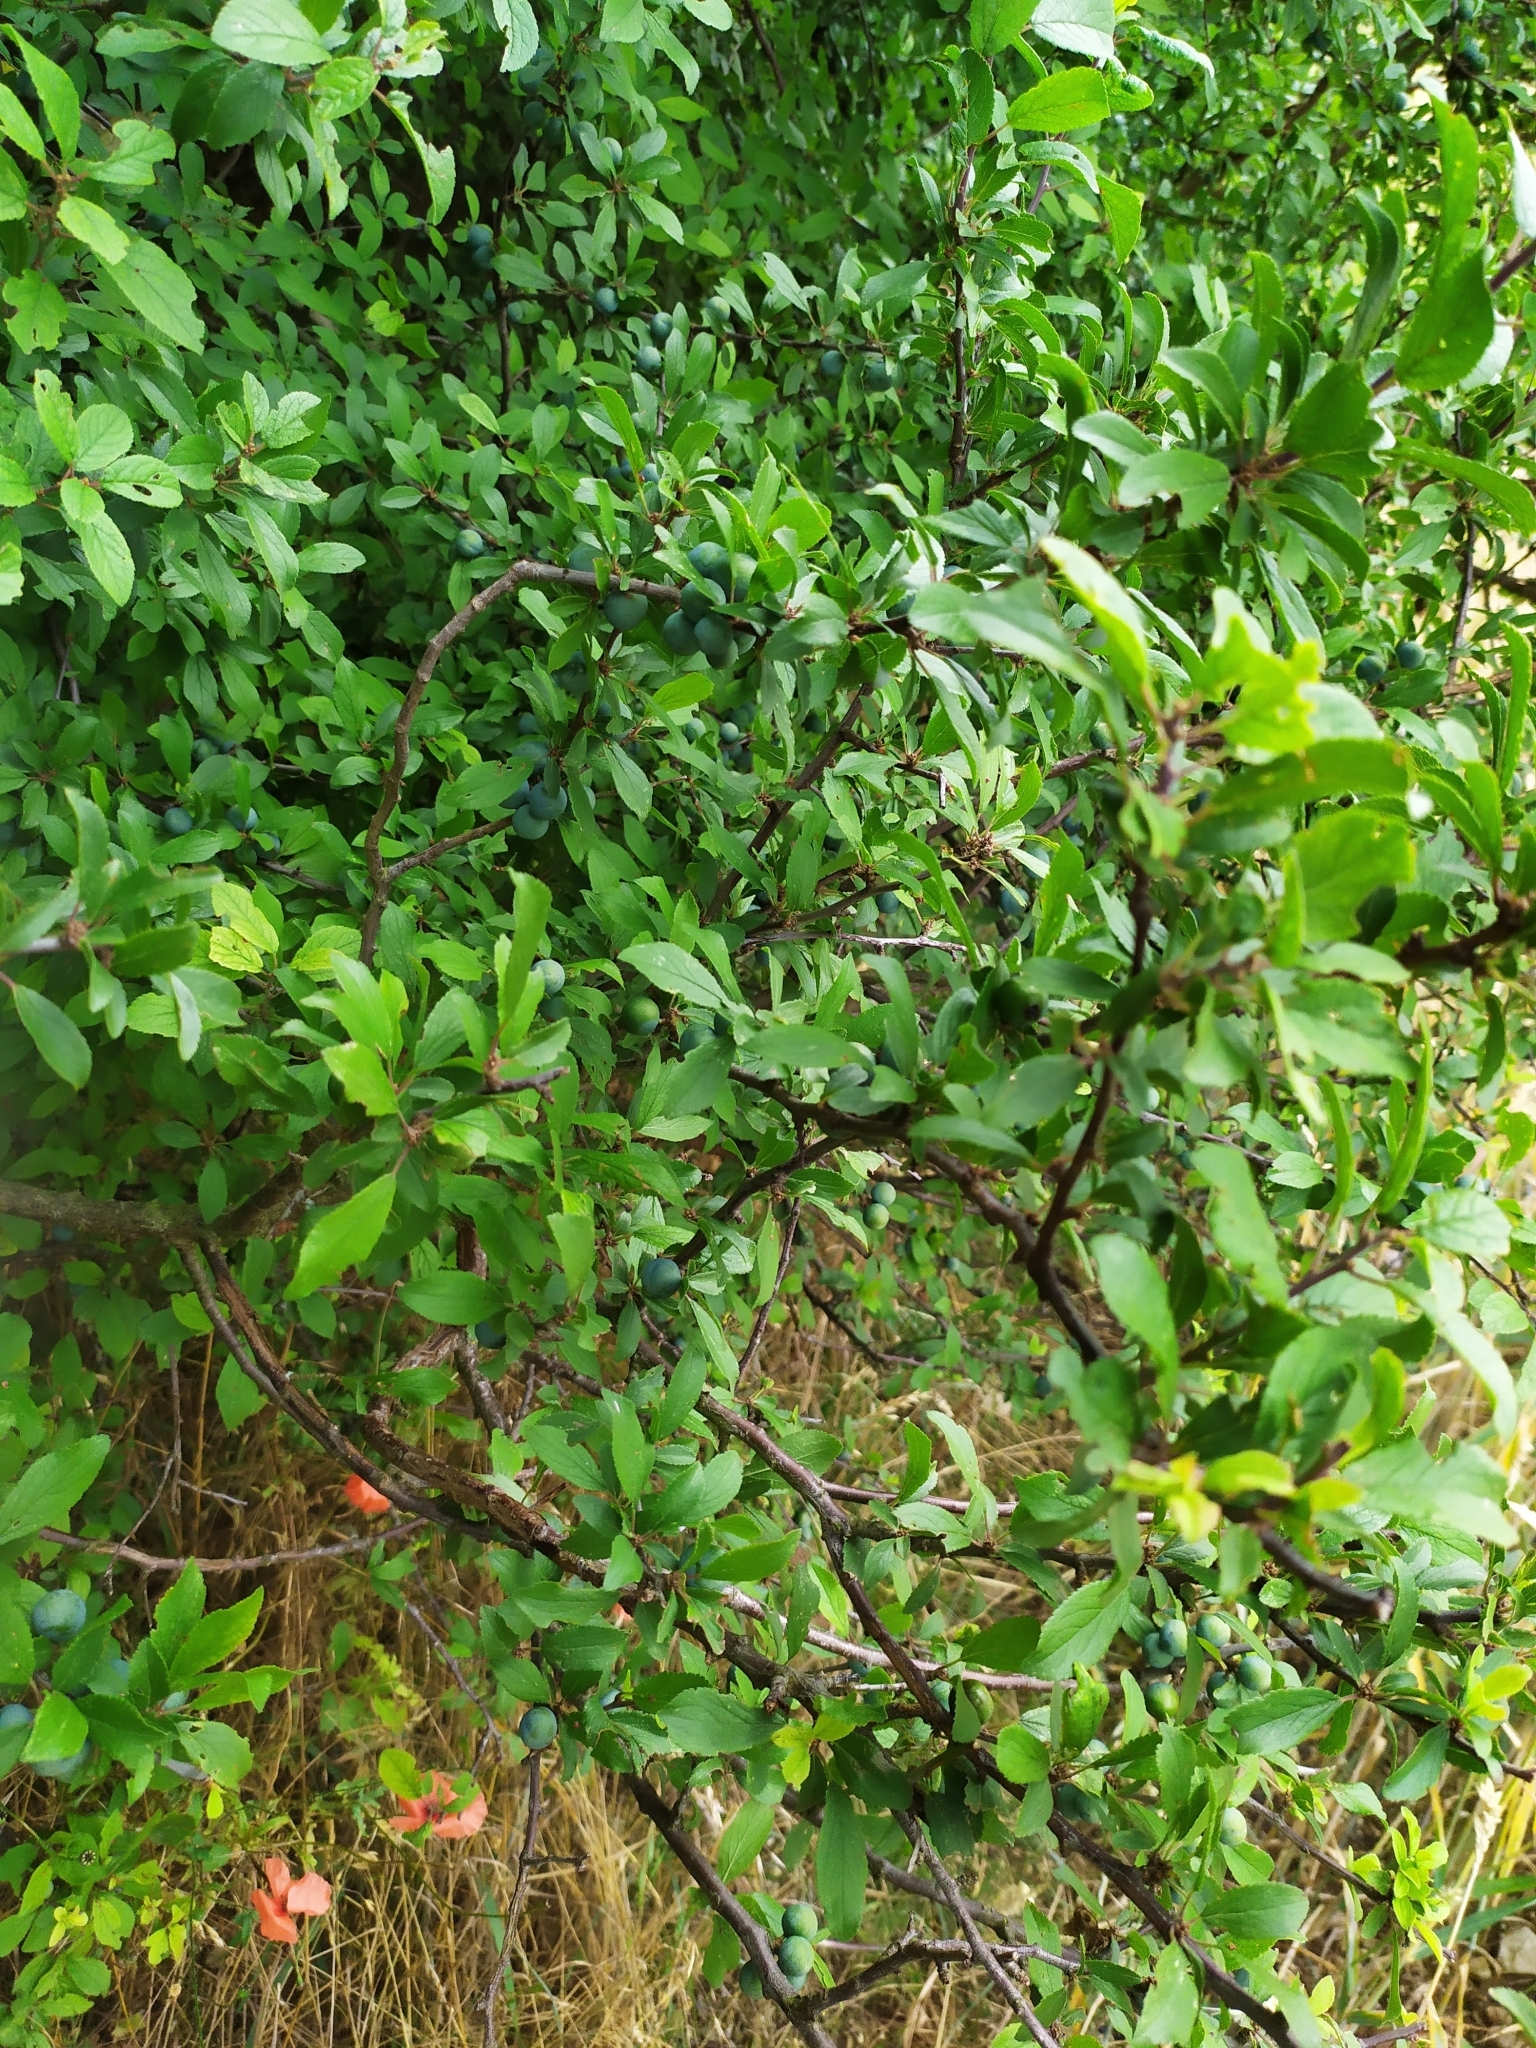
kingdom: Plantae
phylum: Tracheophyta
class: Magnoliopsida
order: Rosales
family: Rosaceae
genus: Prunus
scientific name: Prunus spinosa
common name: Blackthorn
